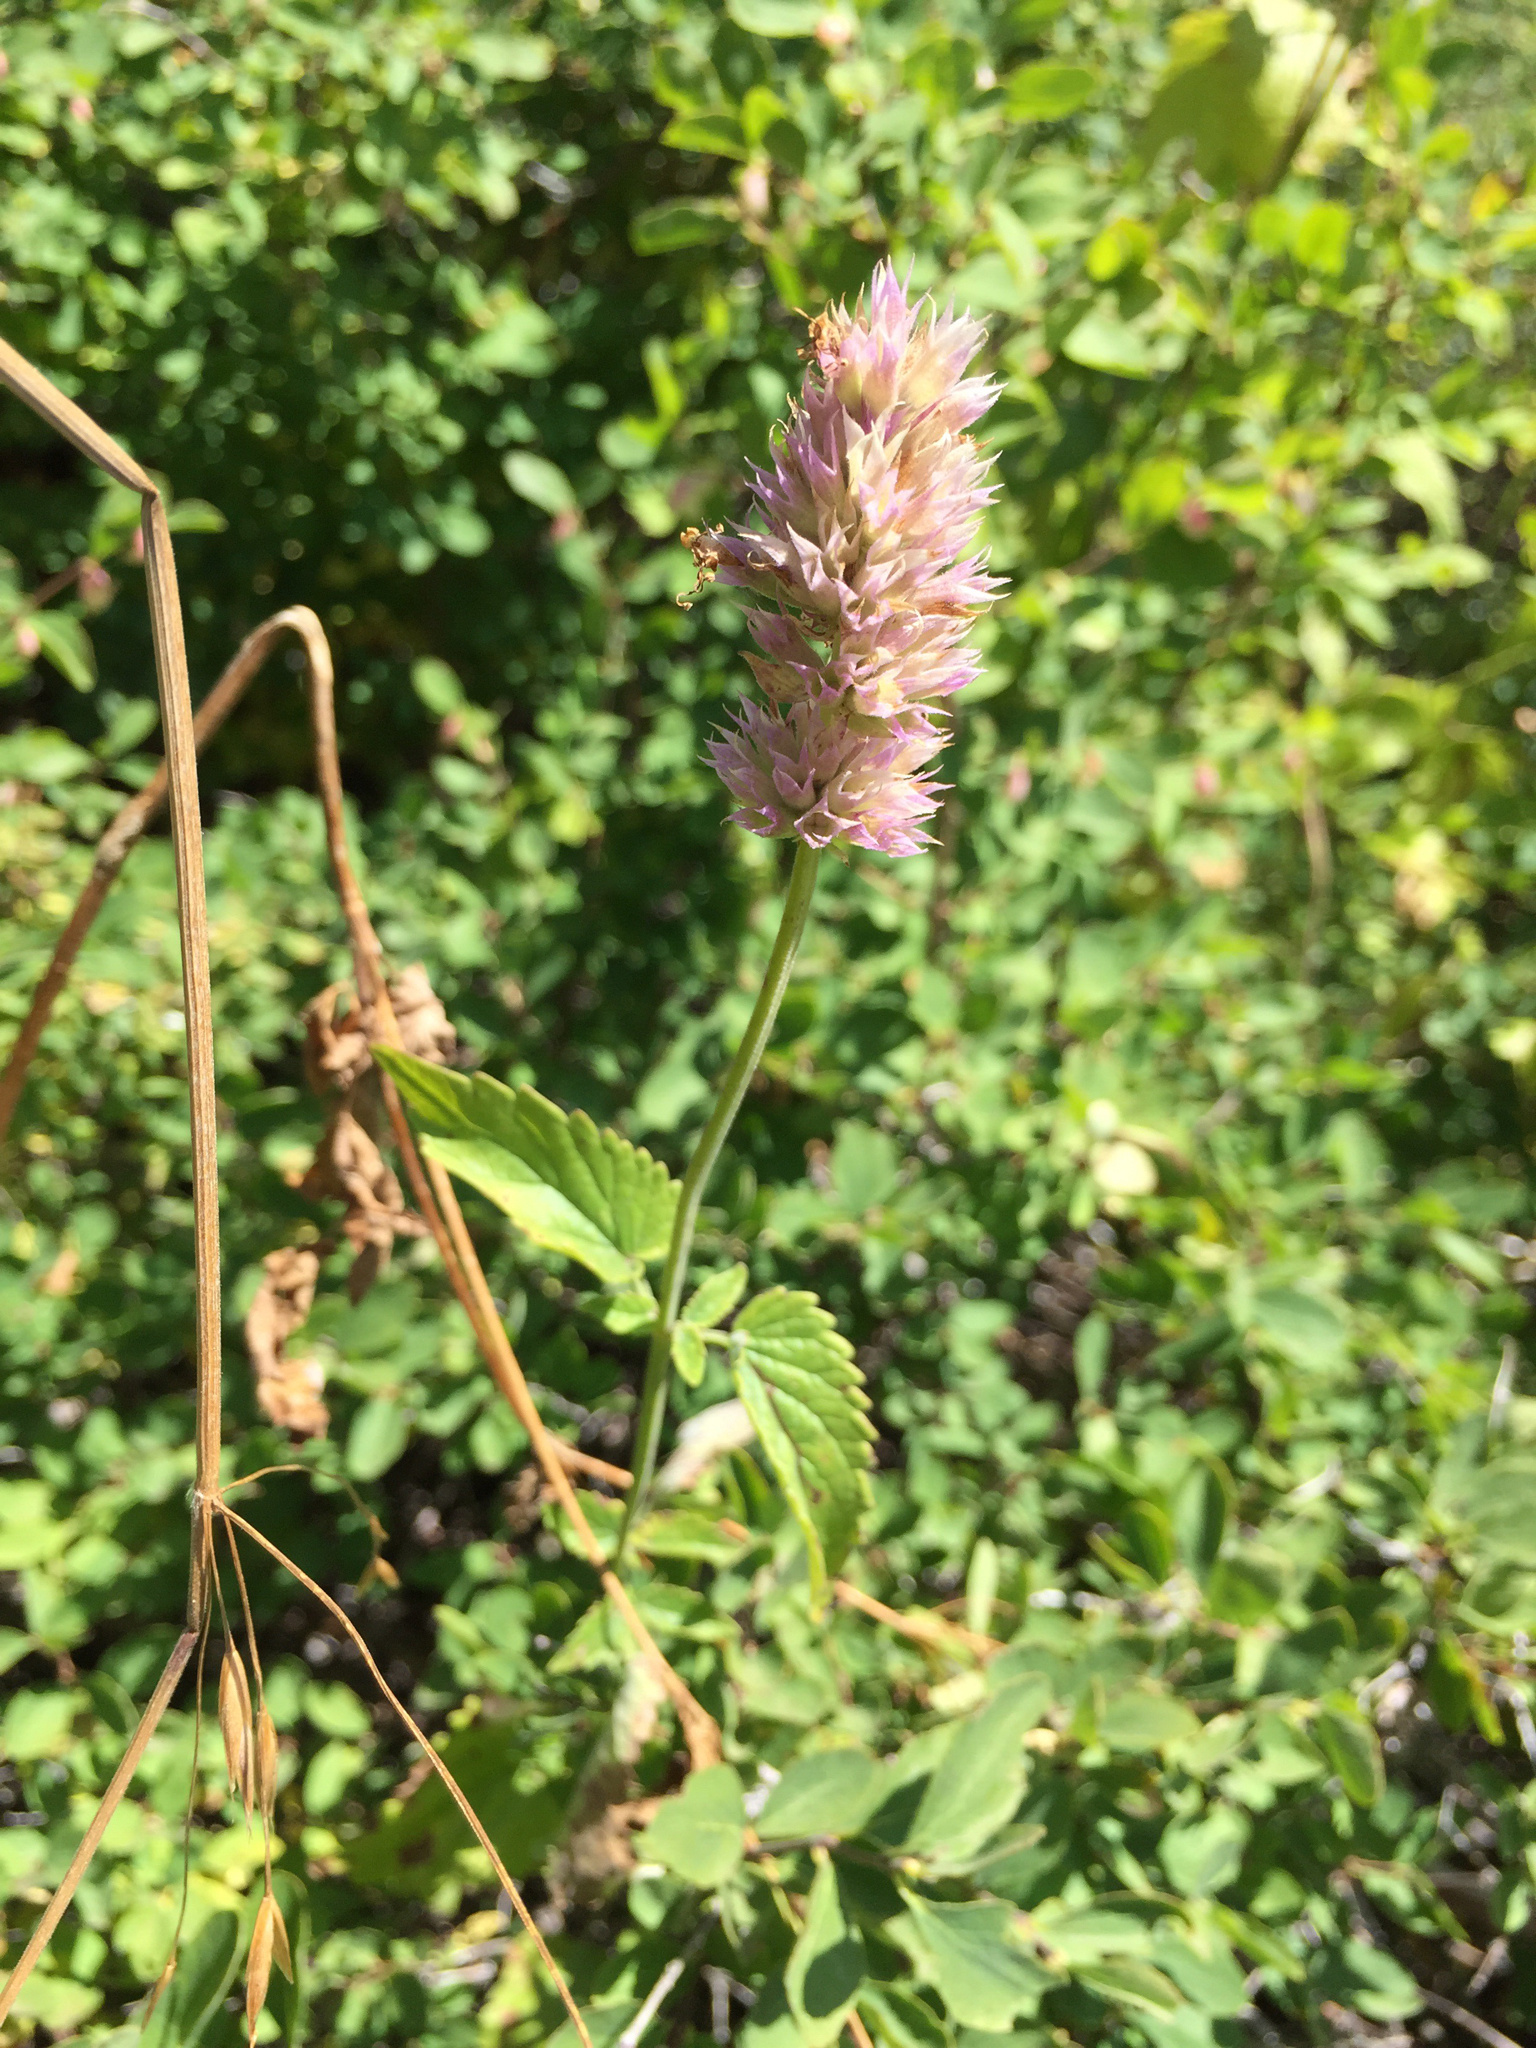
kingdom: Plantae
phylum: Tracheophyta
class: Magnoliopsida
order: Lamiales
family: Lamiaceae
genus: Agastache
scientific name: Agastache urticifolia
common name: Horsemint giant hyssop
